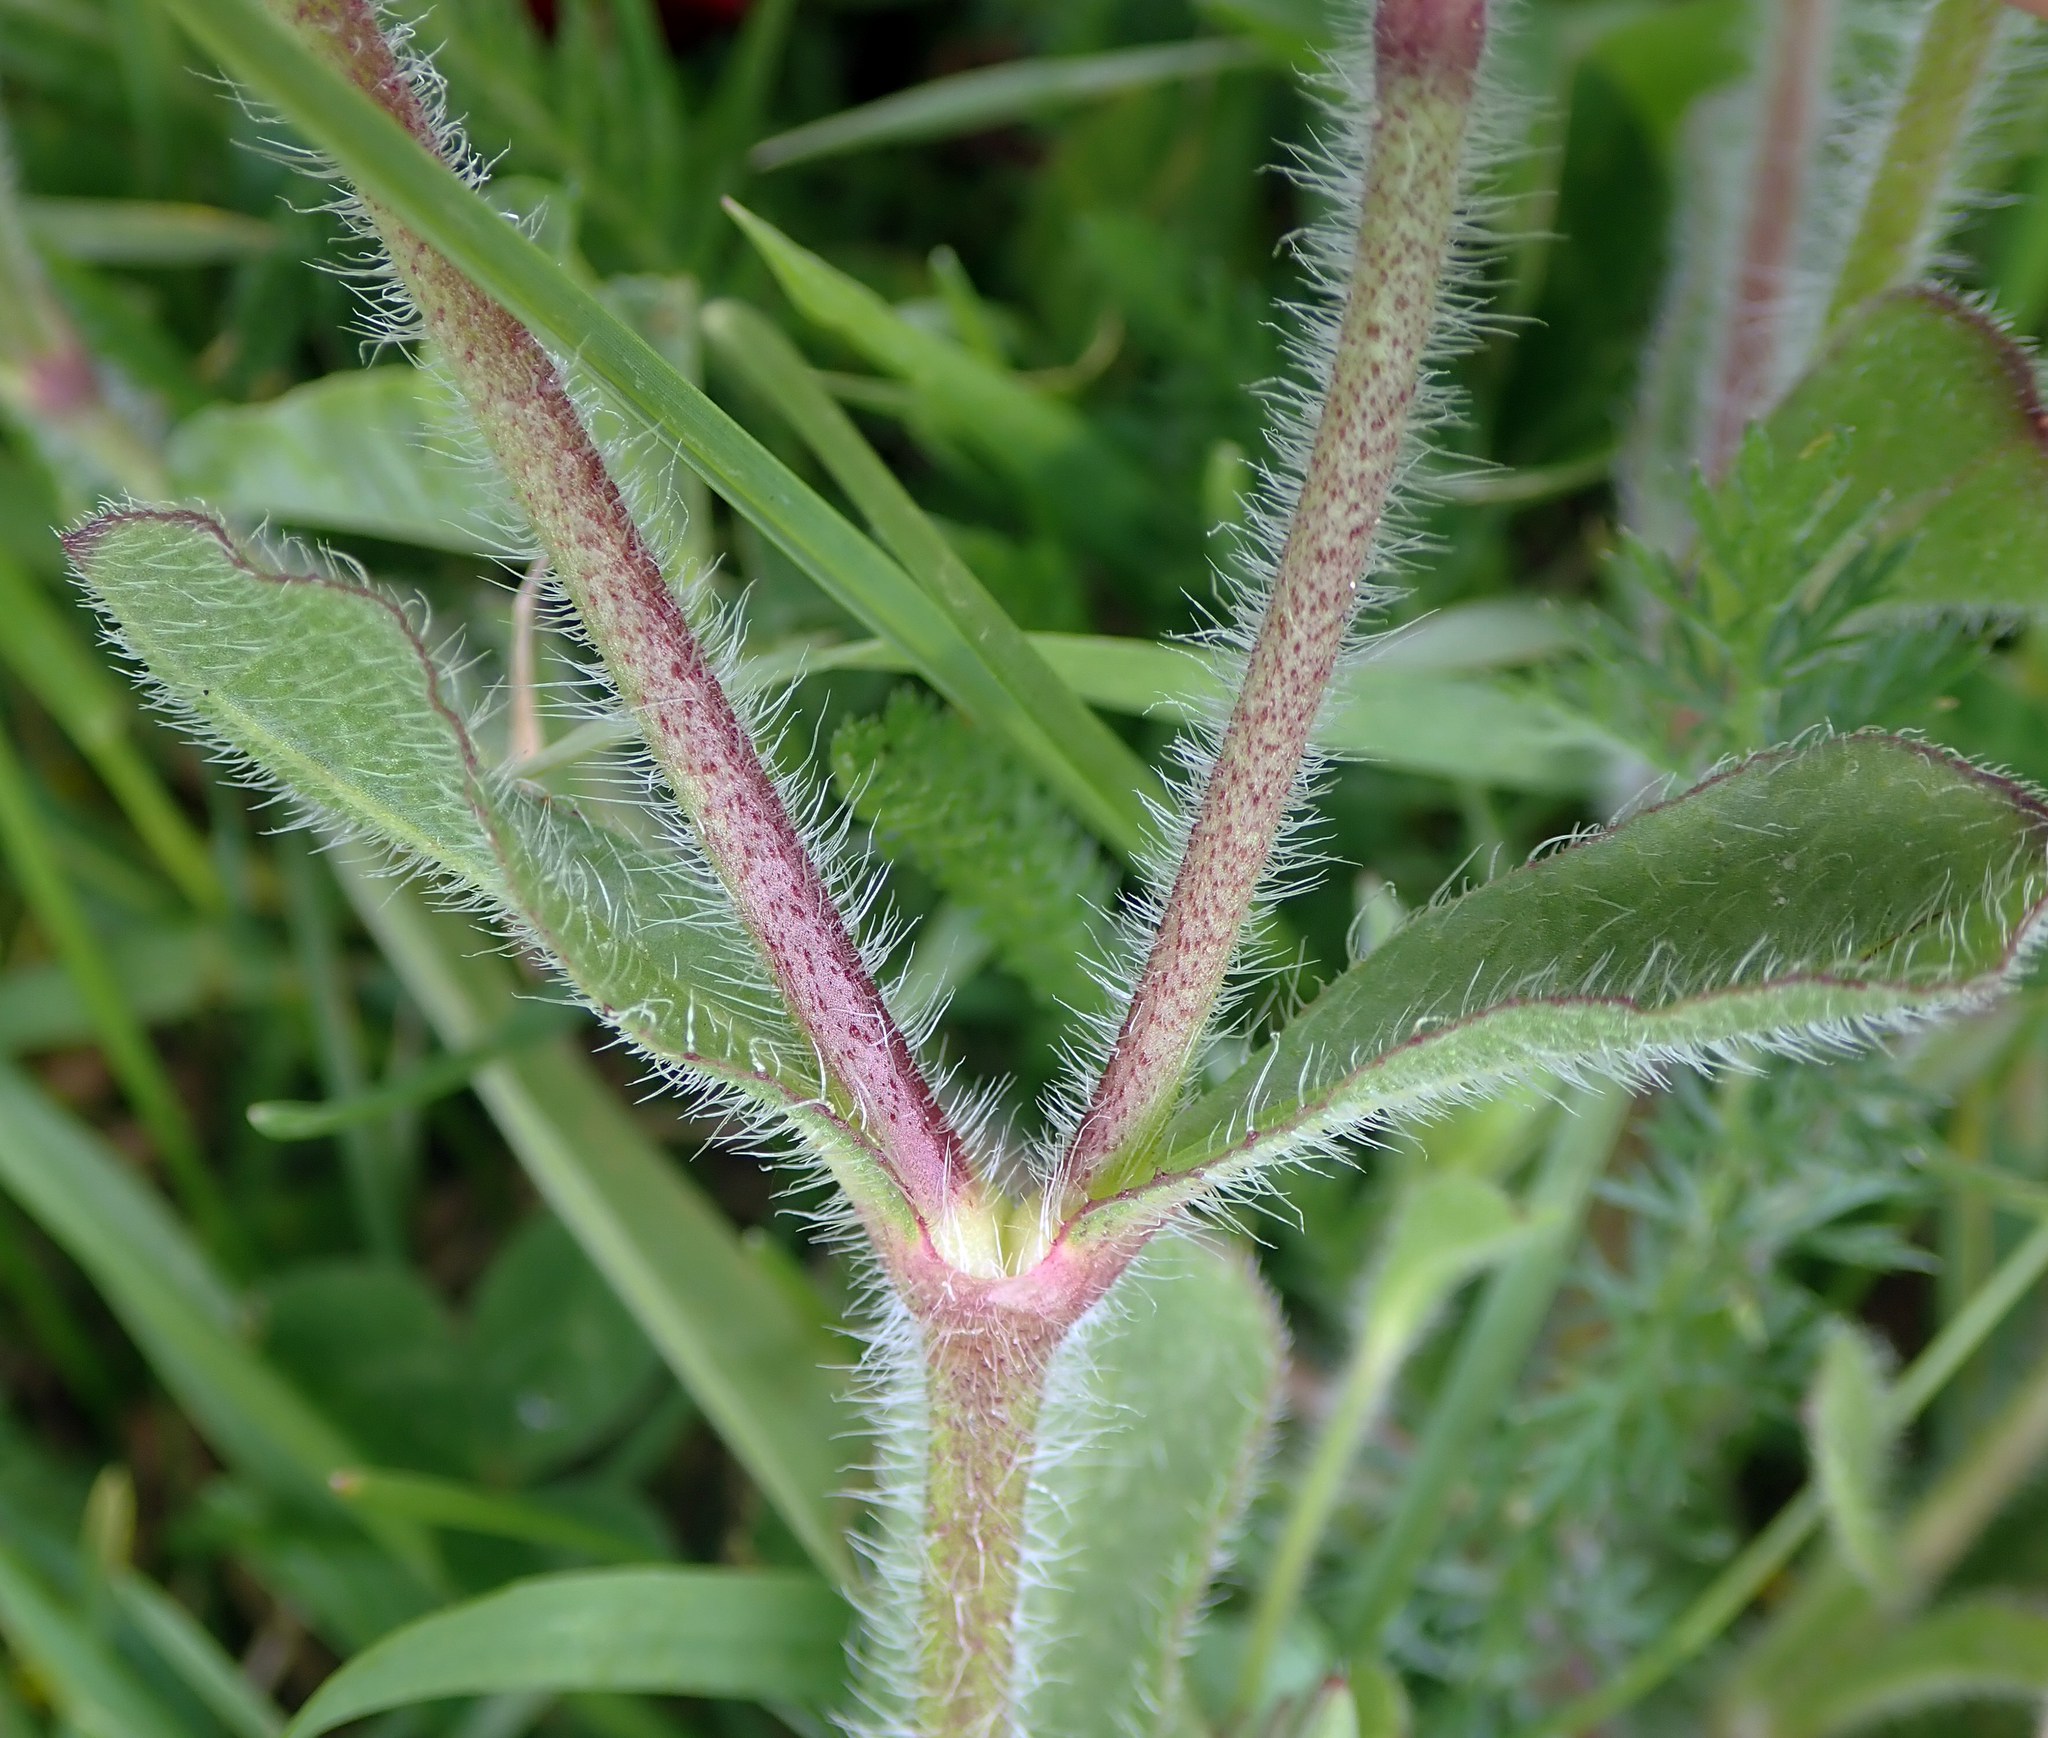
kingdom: Plantae
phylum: Tracheophyta
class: Magnoliopsida
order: Caryophyllales
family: Caryophyllaceae
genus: Silene
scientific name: Silene gallica
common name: Small-flowered catchfly
